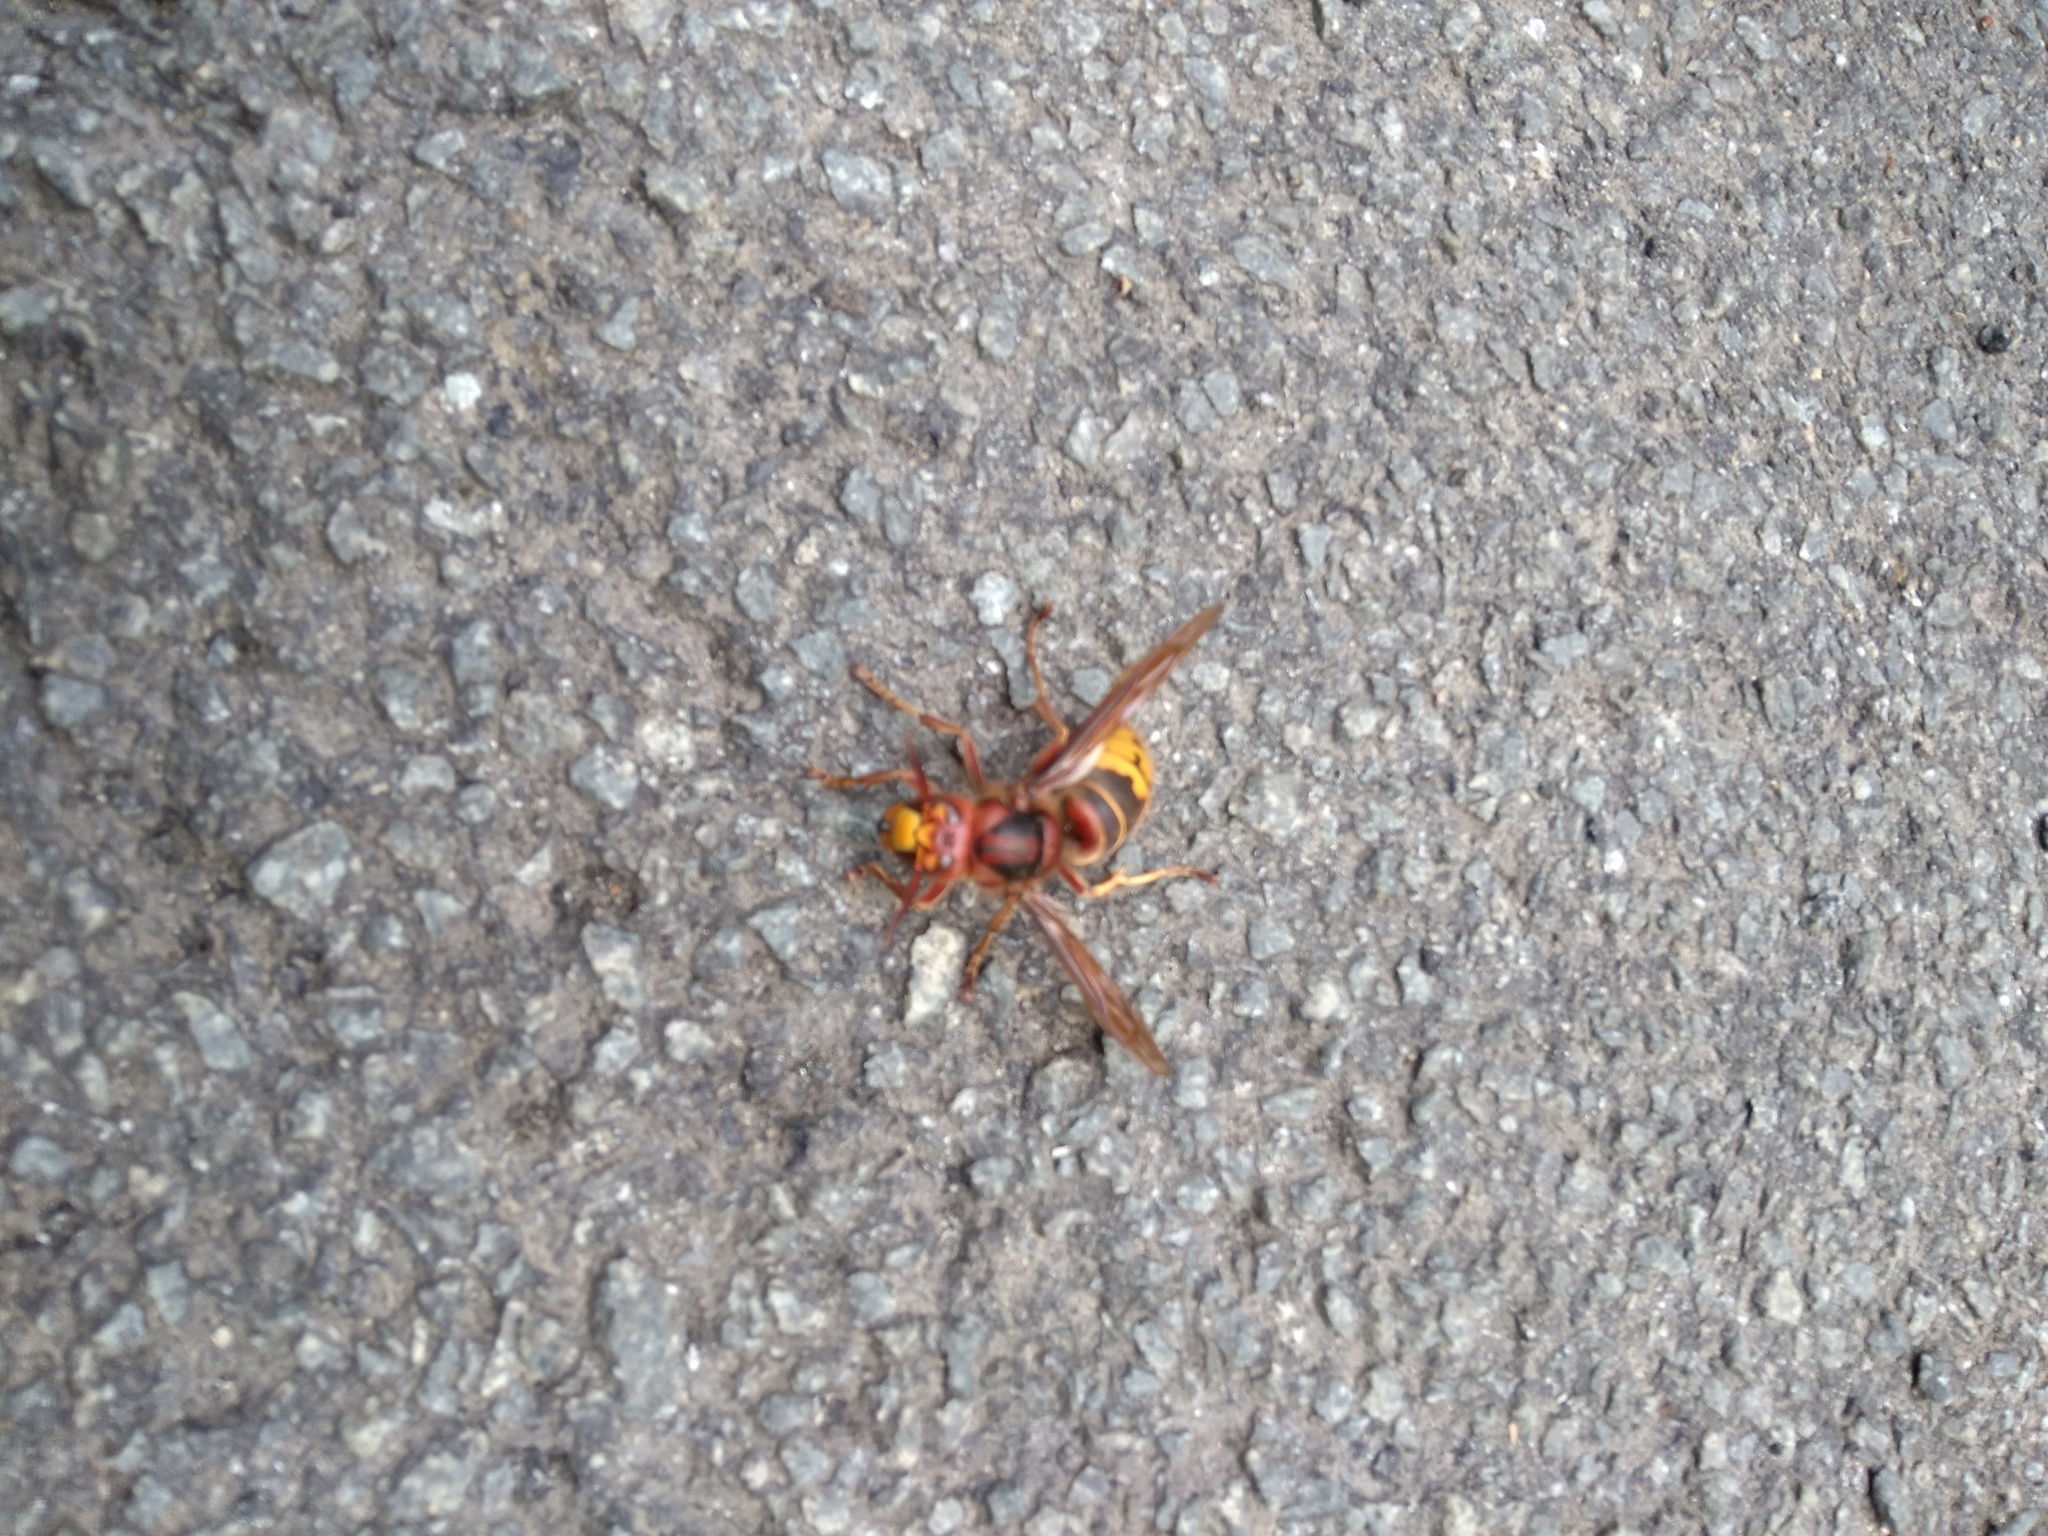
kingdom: Animalia
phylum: Arthropoda
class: Insecta
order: Hymenoptera
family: Vespidae
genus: Vespa
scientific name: Vespa crabro
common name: Hornet
